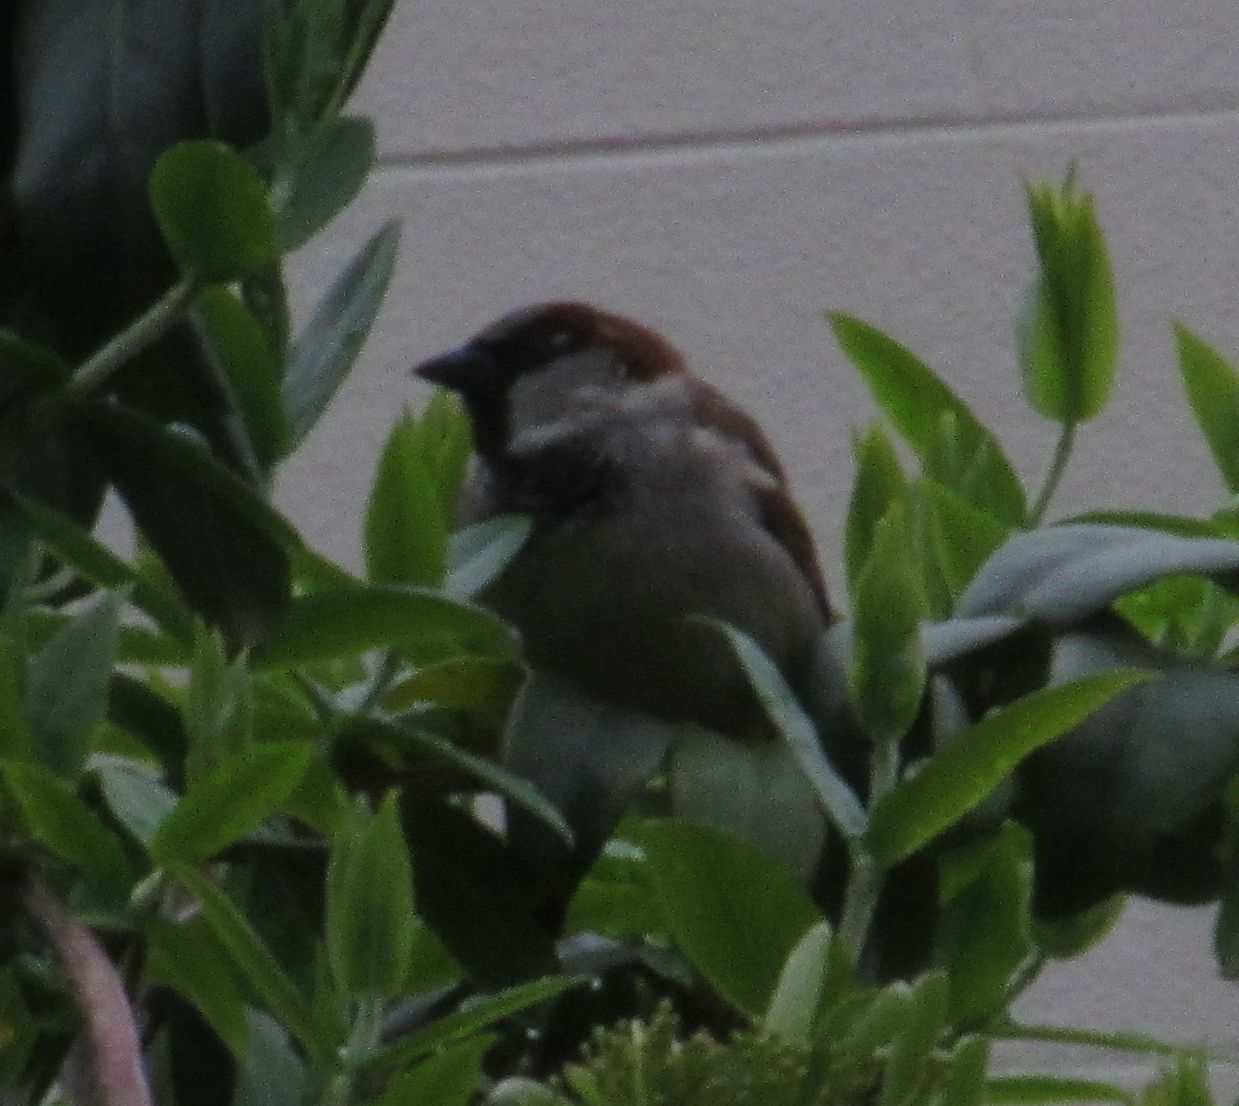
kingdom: Animalia
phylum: Chordata
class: Aves
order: Passeriformes
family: Passeridae
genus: Passer
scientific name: Passer domesticus
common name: House sparrow
